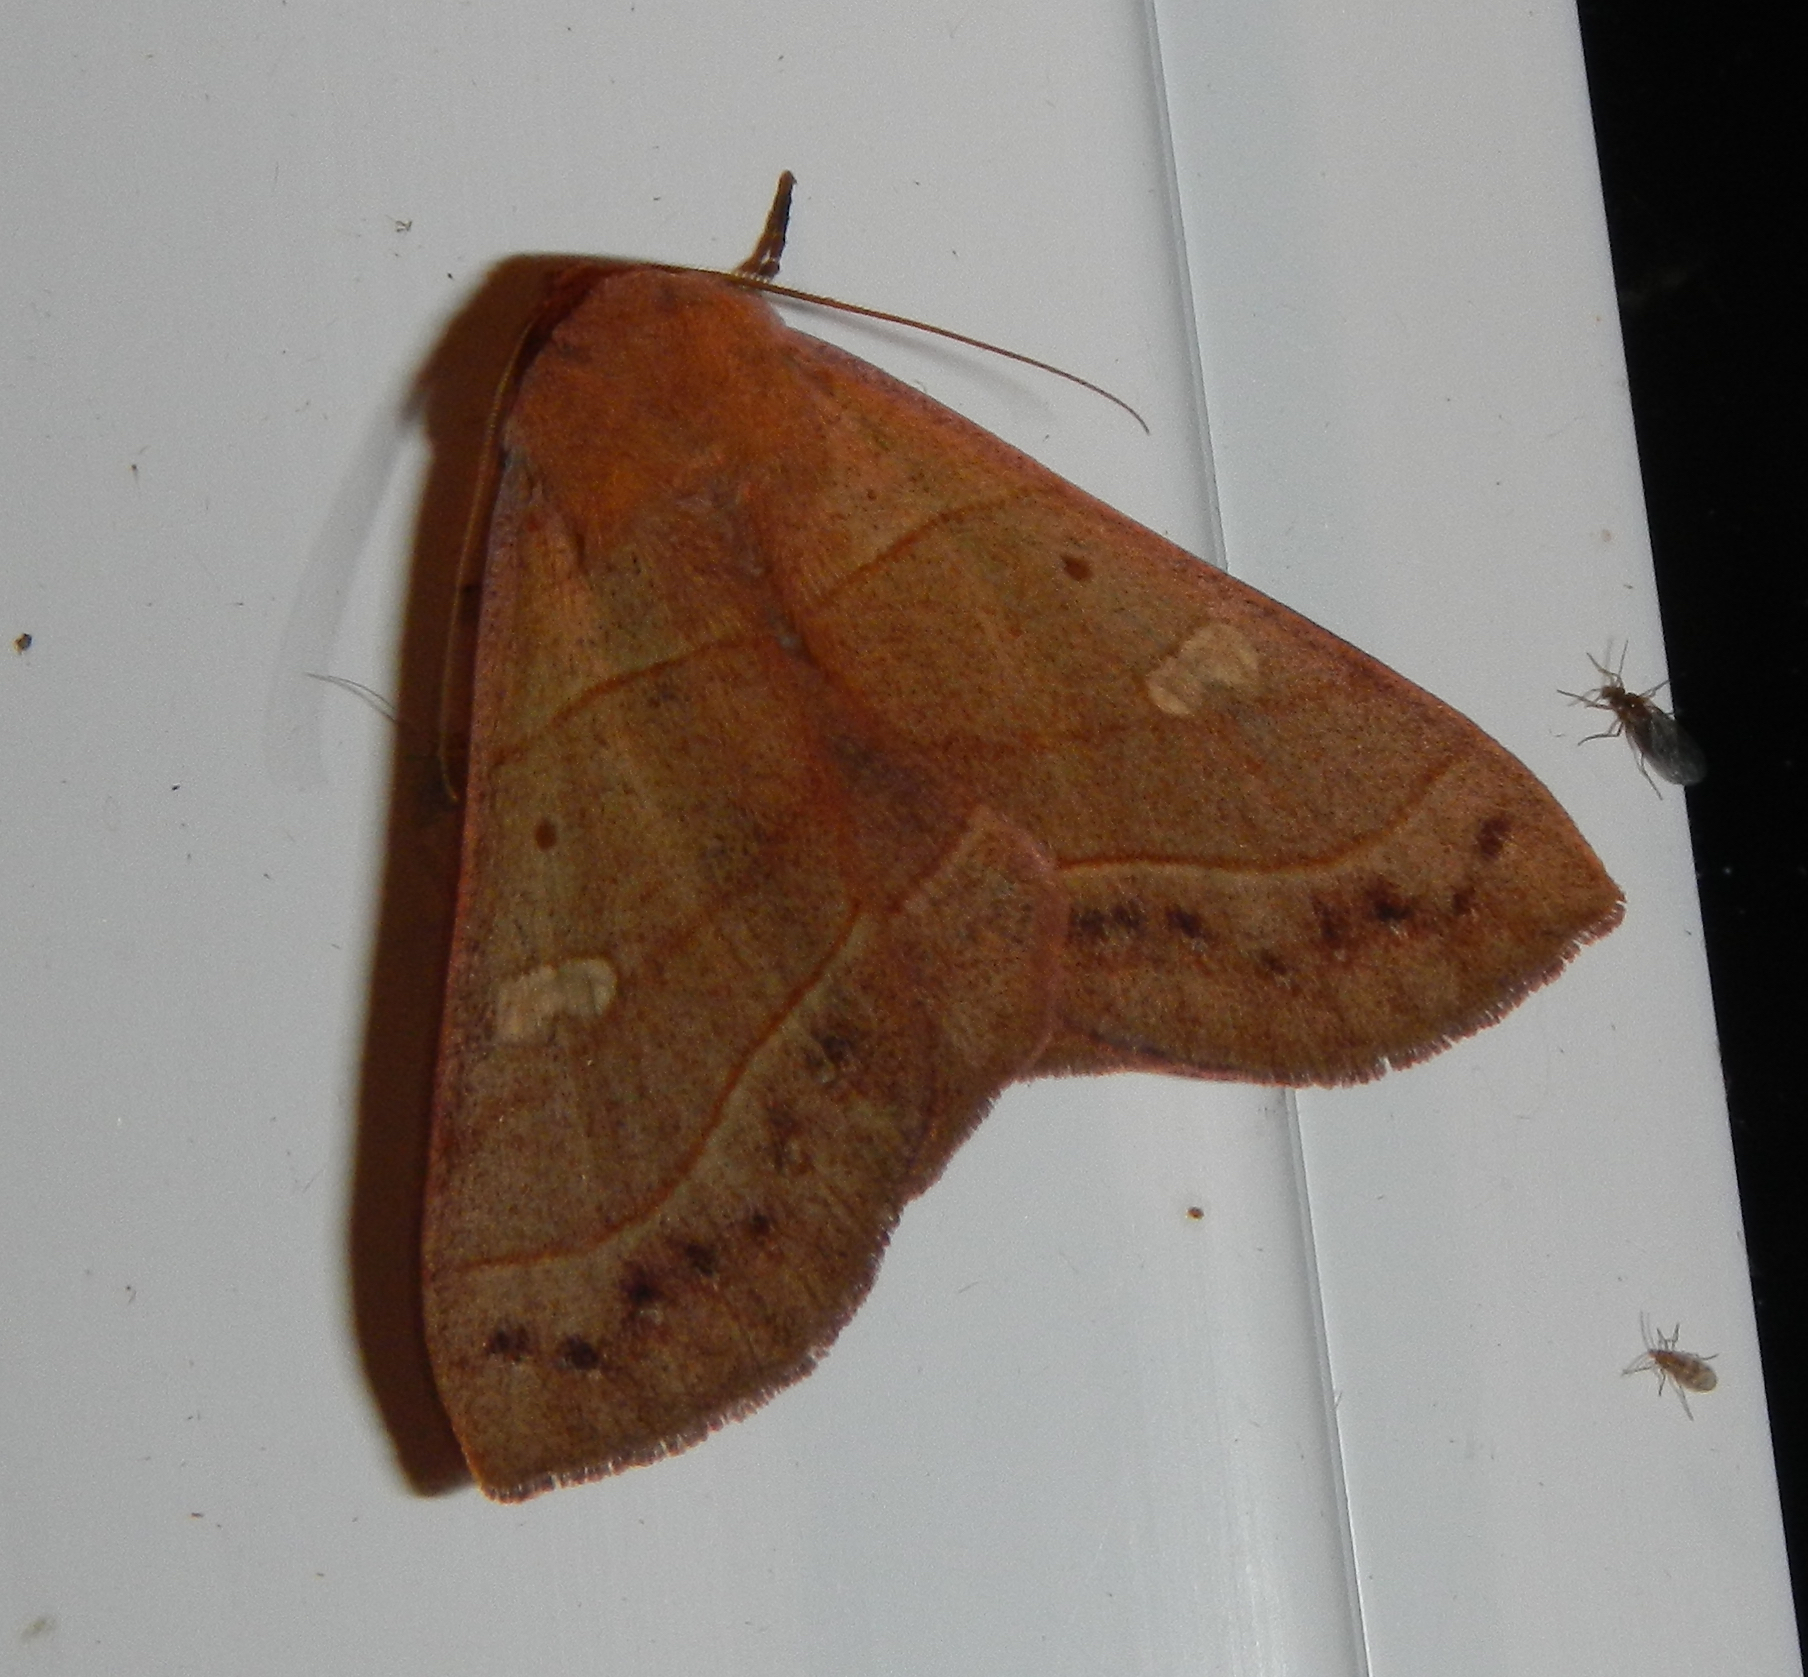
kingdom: Animalia
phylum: Arthropoda
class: Insecta
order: Lepidoptera
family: Erebidae
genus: Panopoda
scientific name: Panopoda rufimargo
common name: Red-lined panopoda moth
